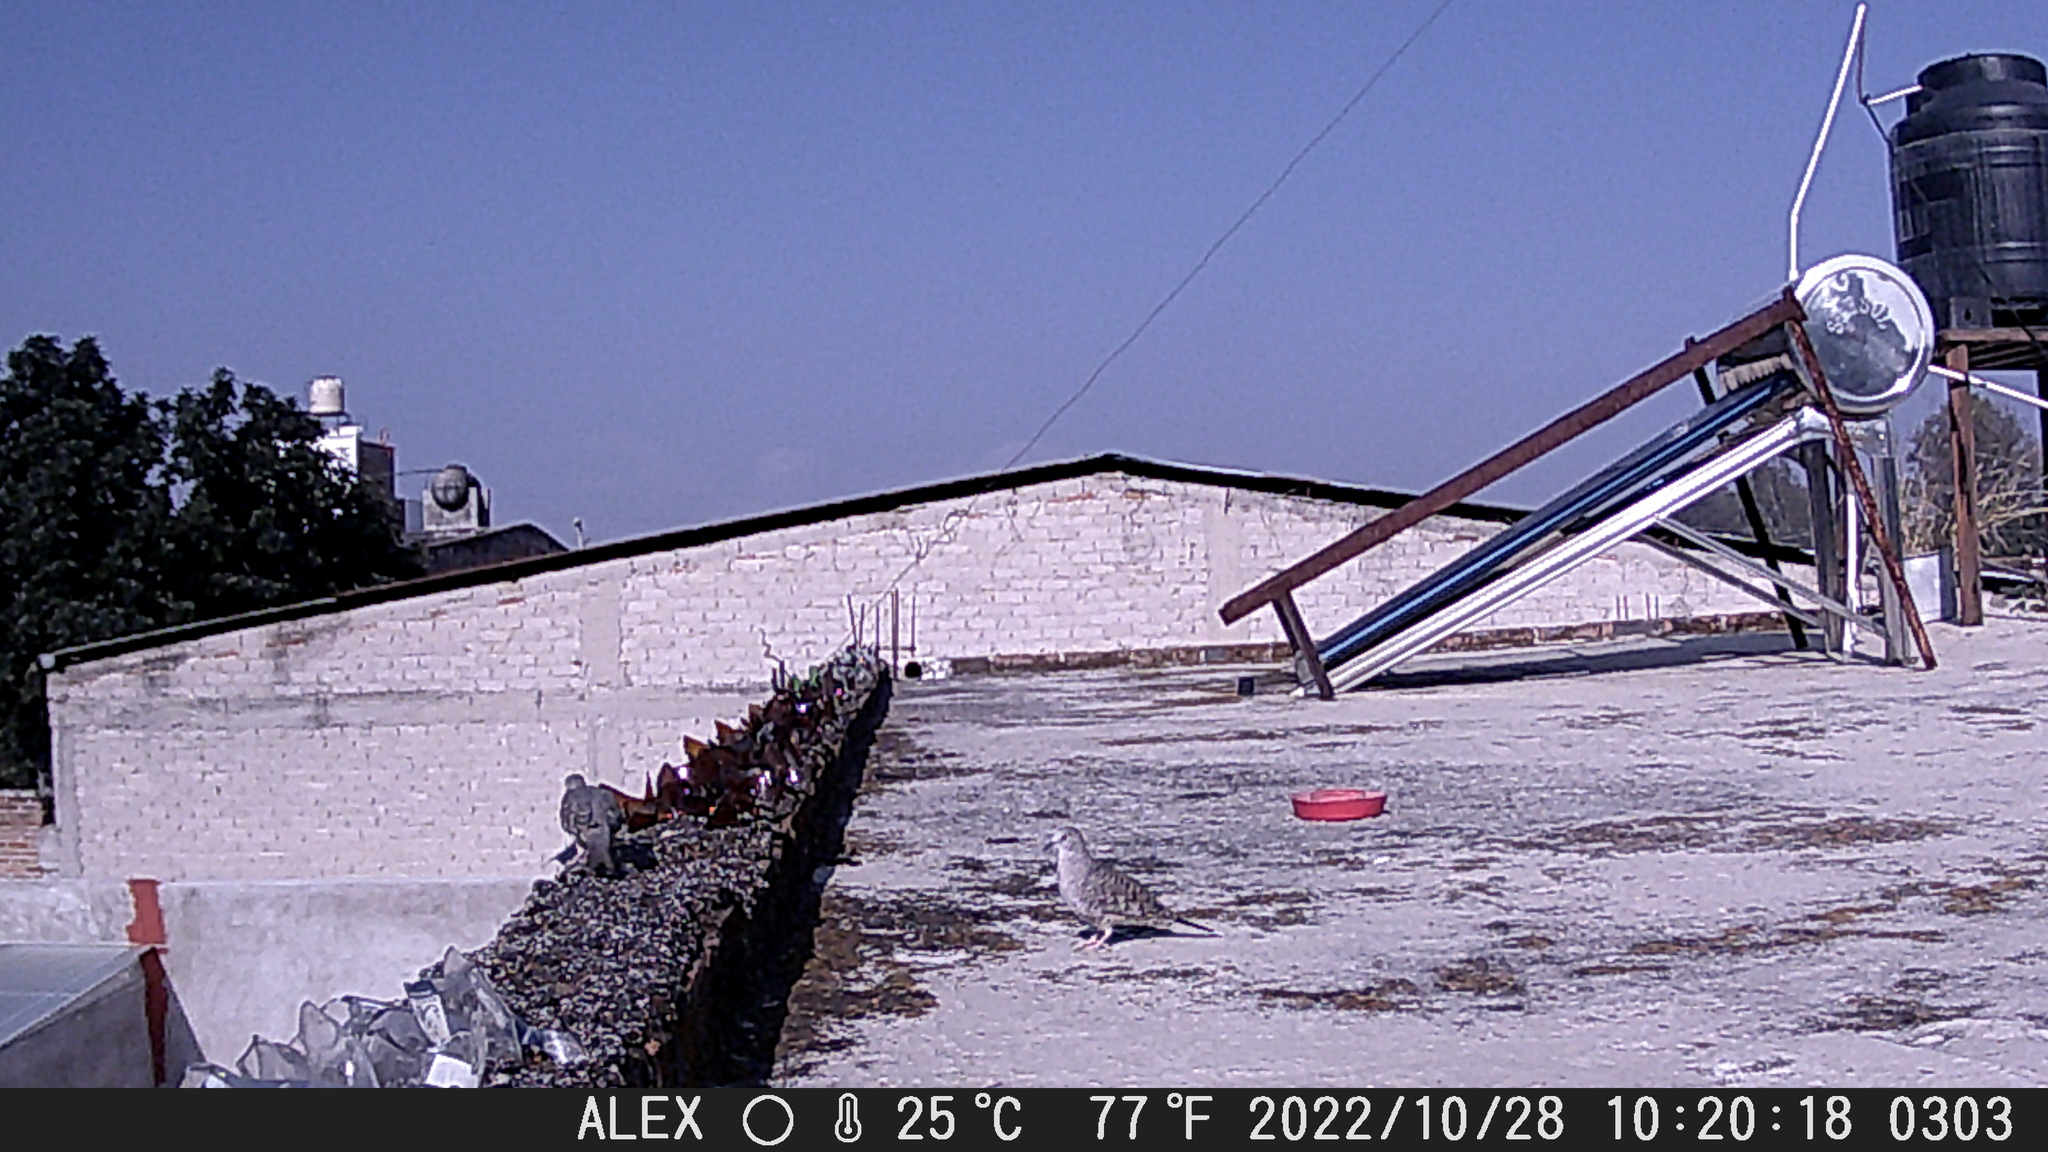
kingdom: Animalia
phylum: Chordata
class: Aves
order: Columbiformes
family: Columbidae
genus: Columbina
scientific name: Columbina inca
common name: Inca dove
